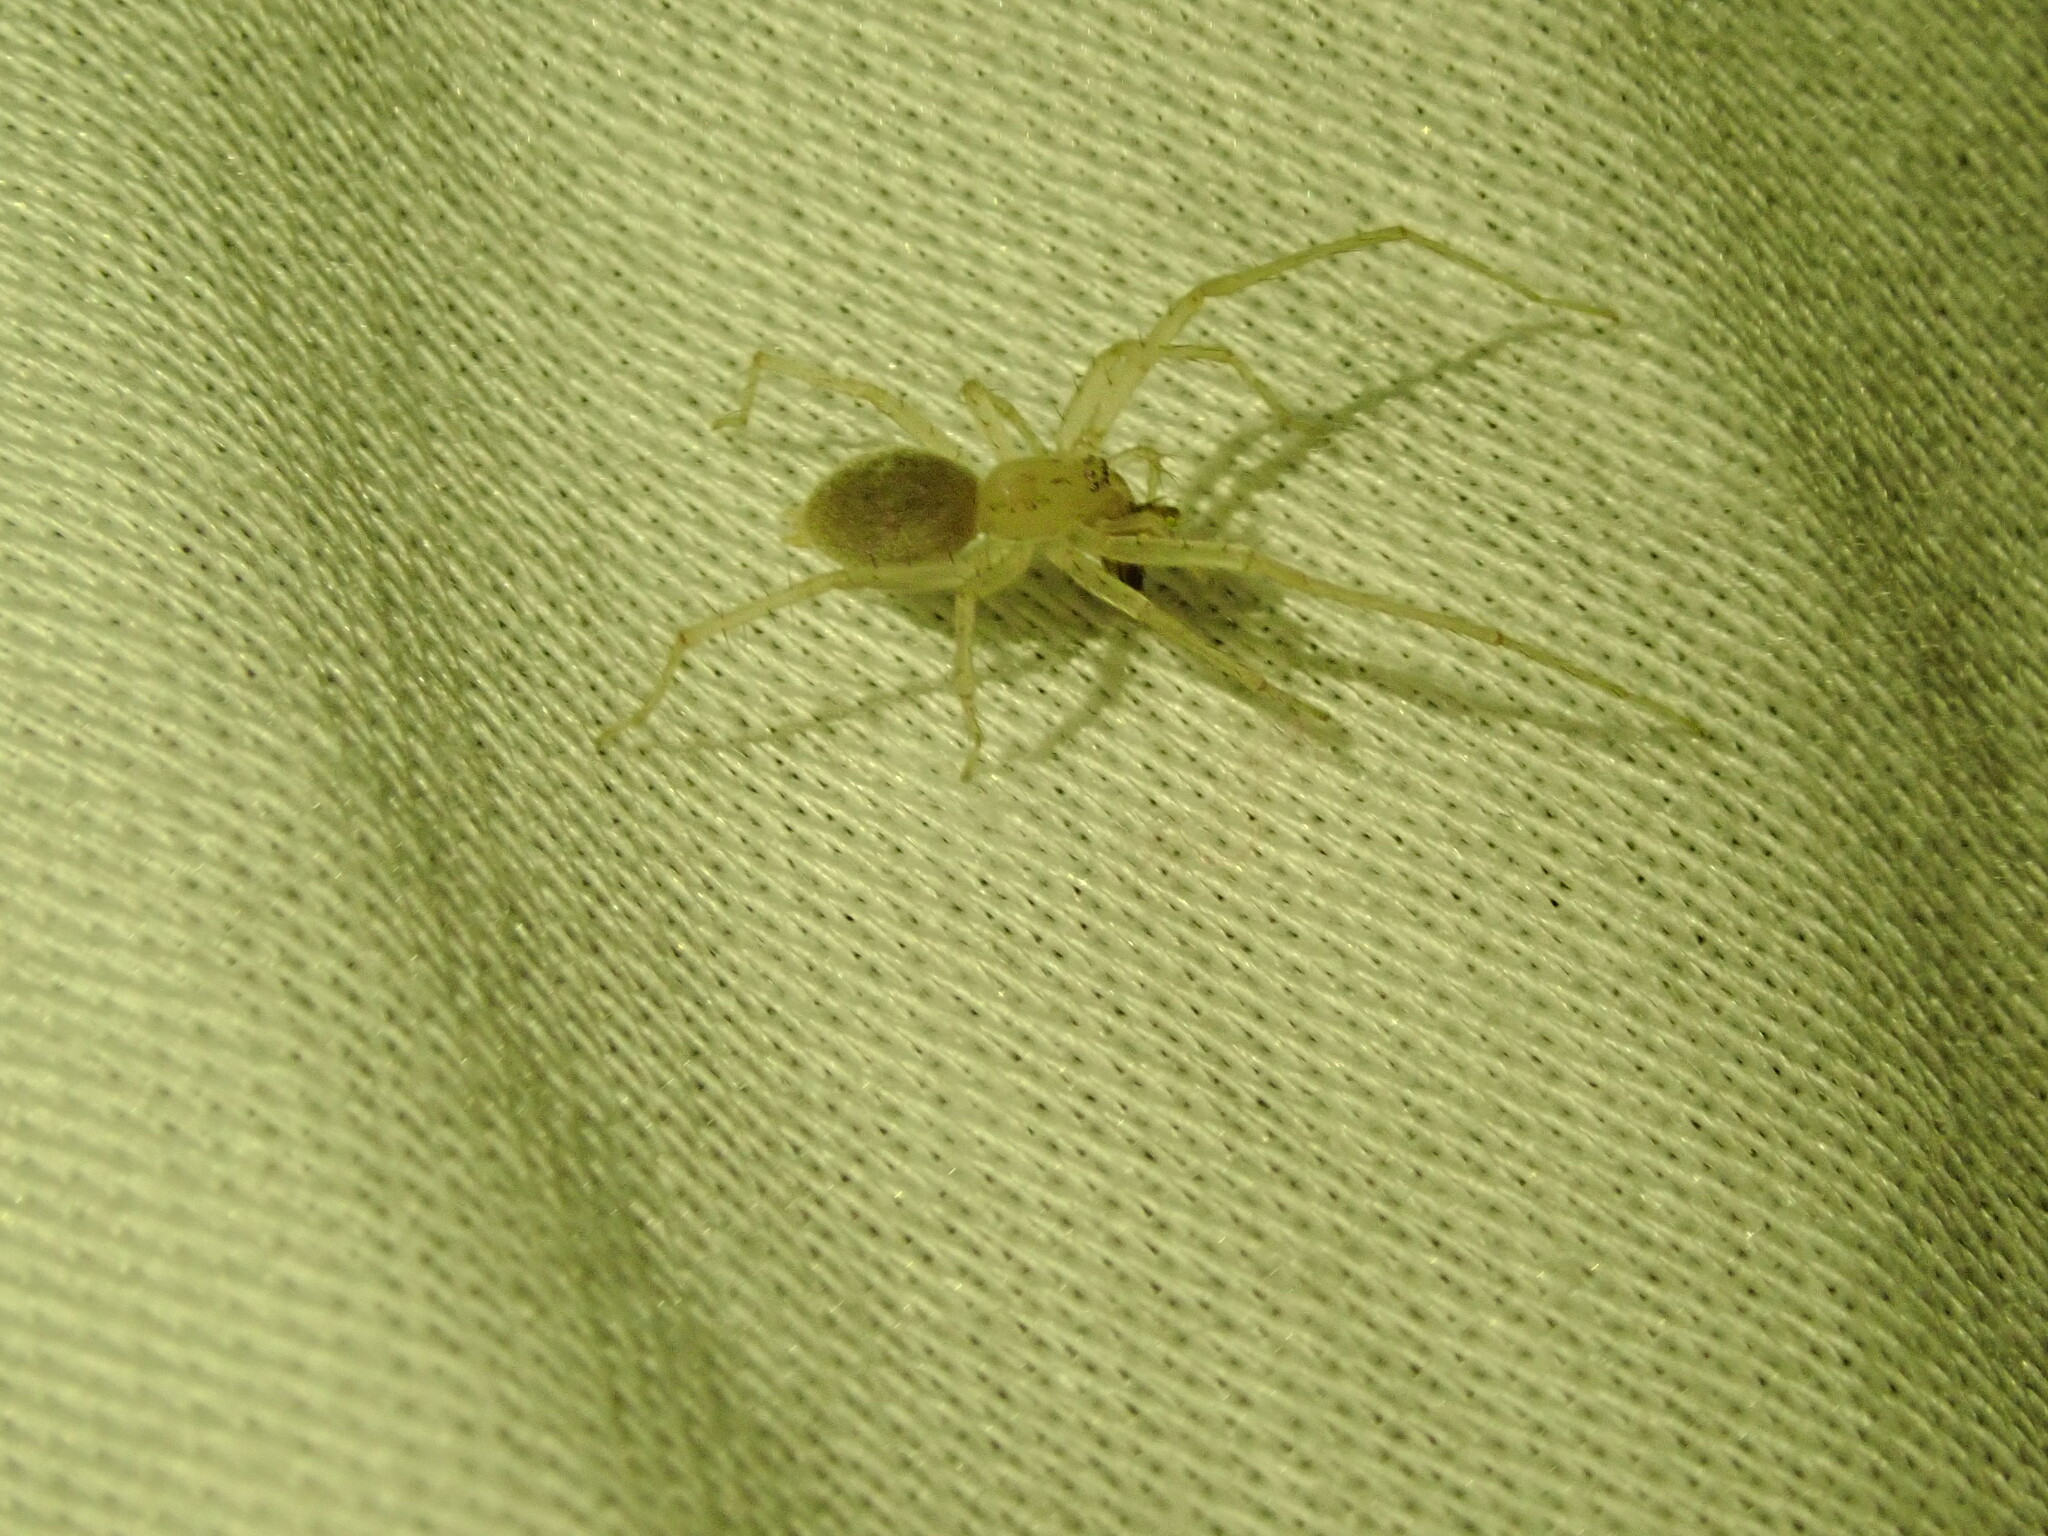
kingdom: Animalia
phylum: Arthropoda
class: Arachnida
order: Araneae
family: Anyphaenidae
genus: Wulfila
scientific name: Wulfila saltabundus
